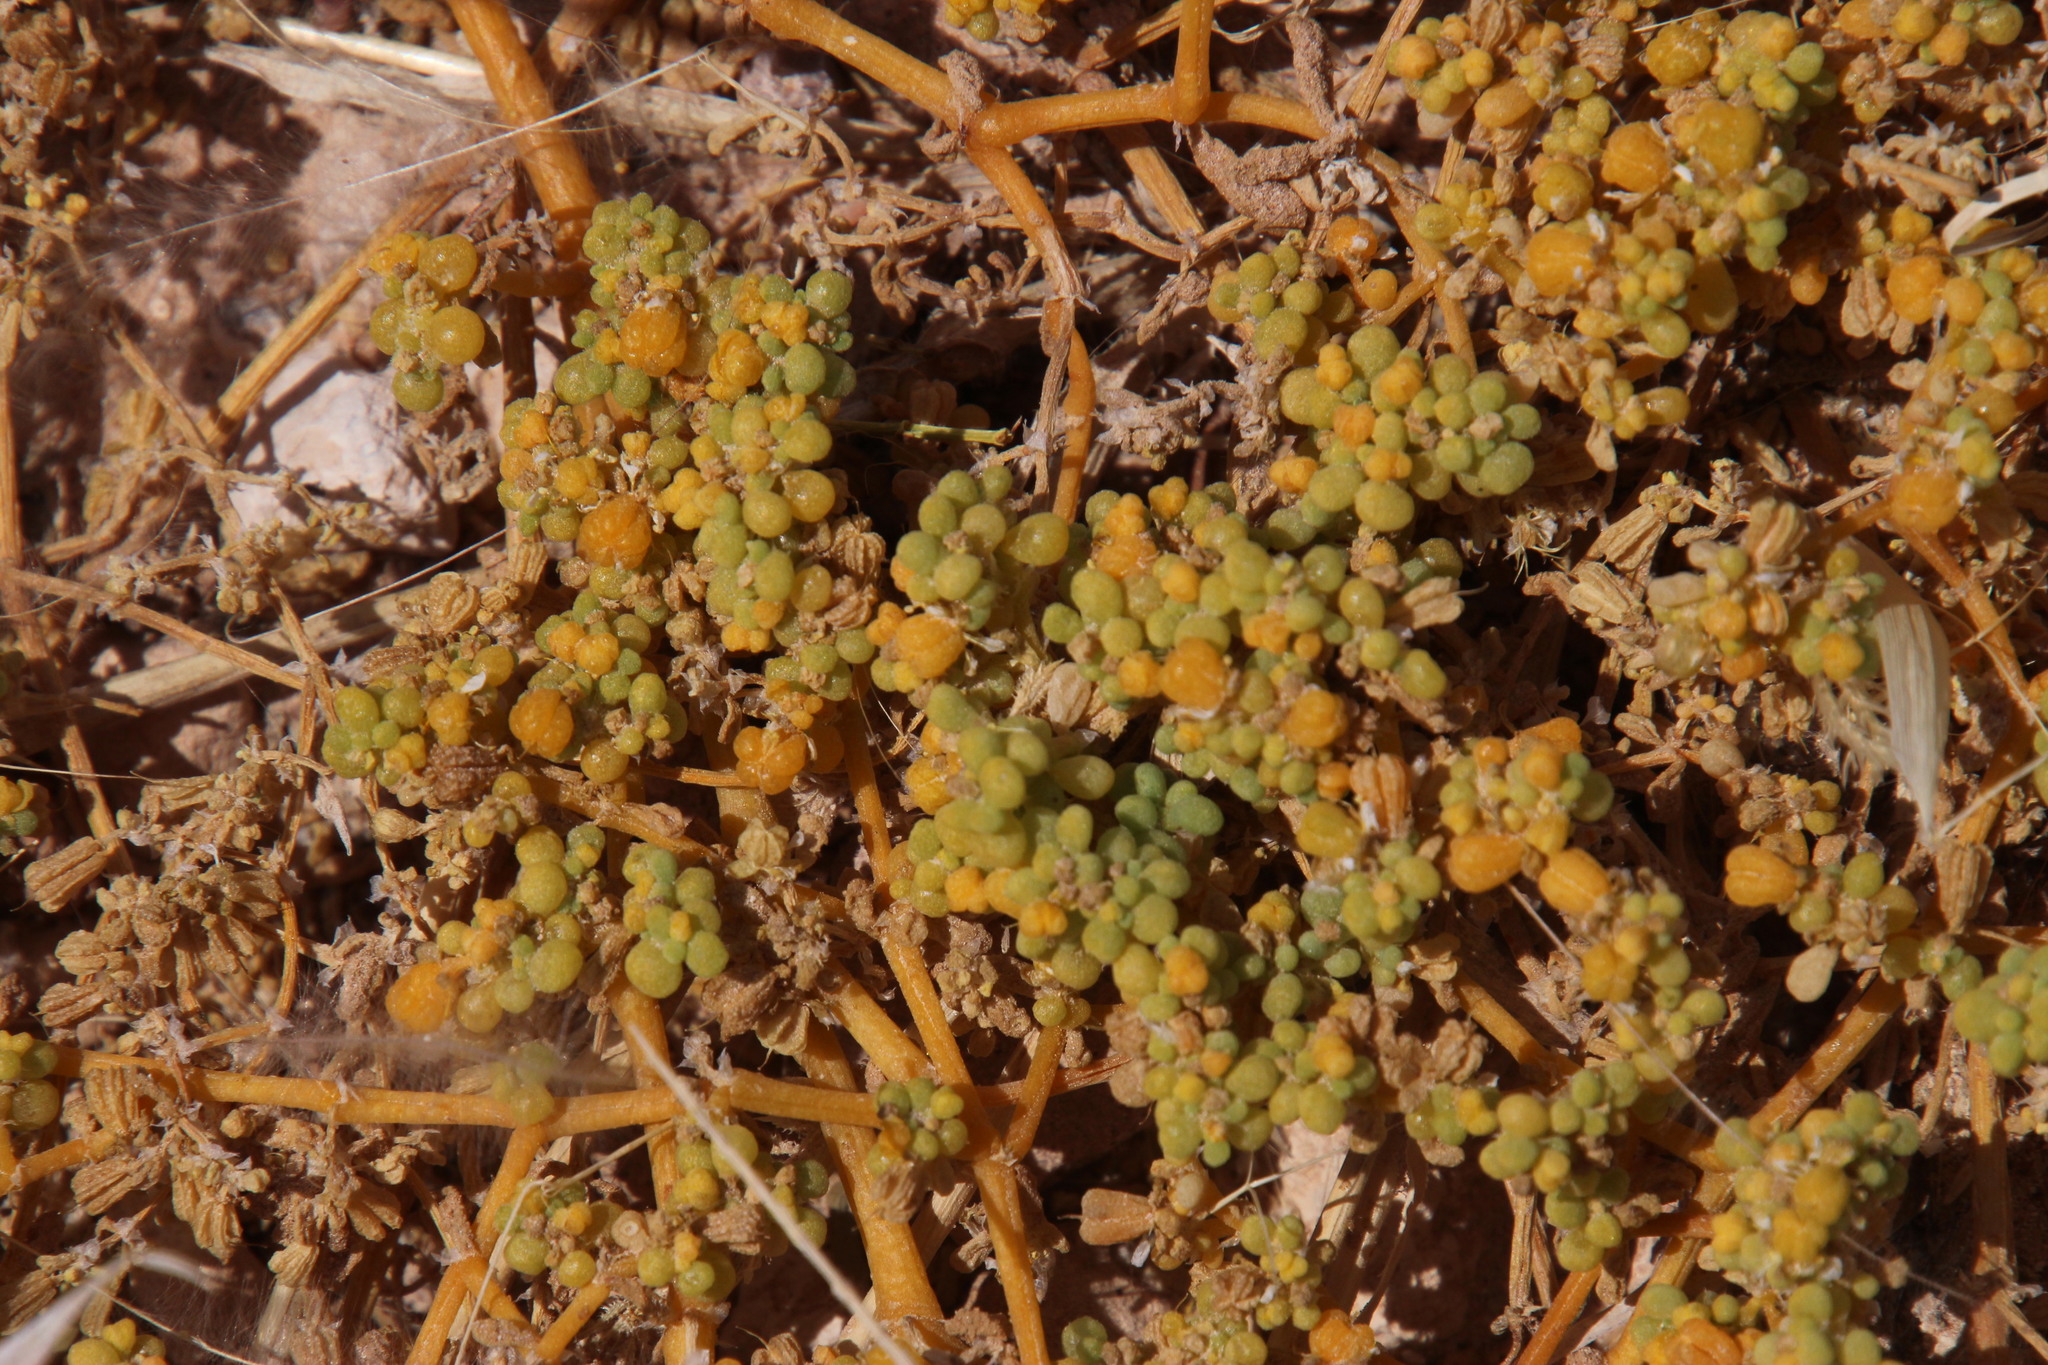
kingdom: Plantae
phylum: Tracheophyta
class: Magnoliopsida
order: Zygophyllales
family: Zygophyllaceae
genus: Tetraena
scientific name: Tetraena simplex
